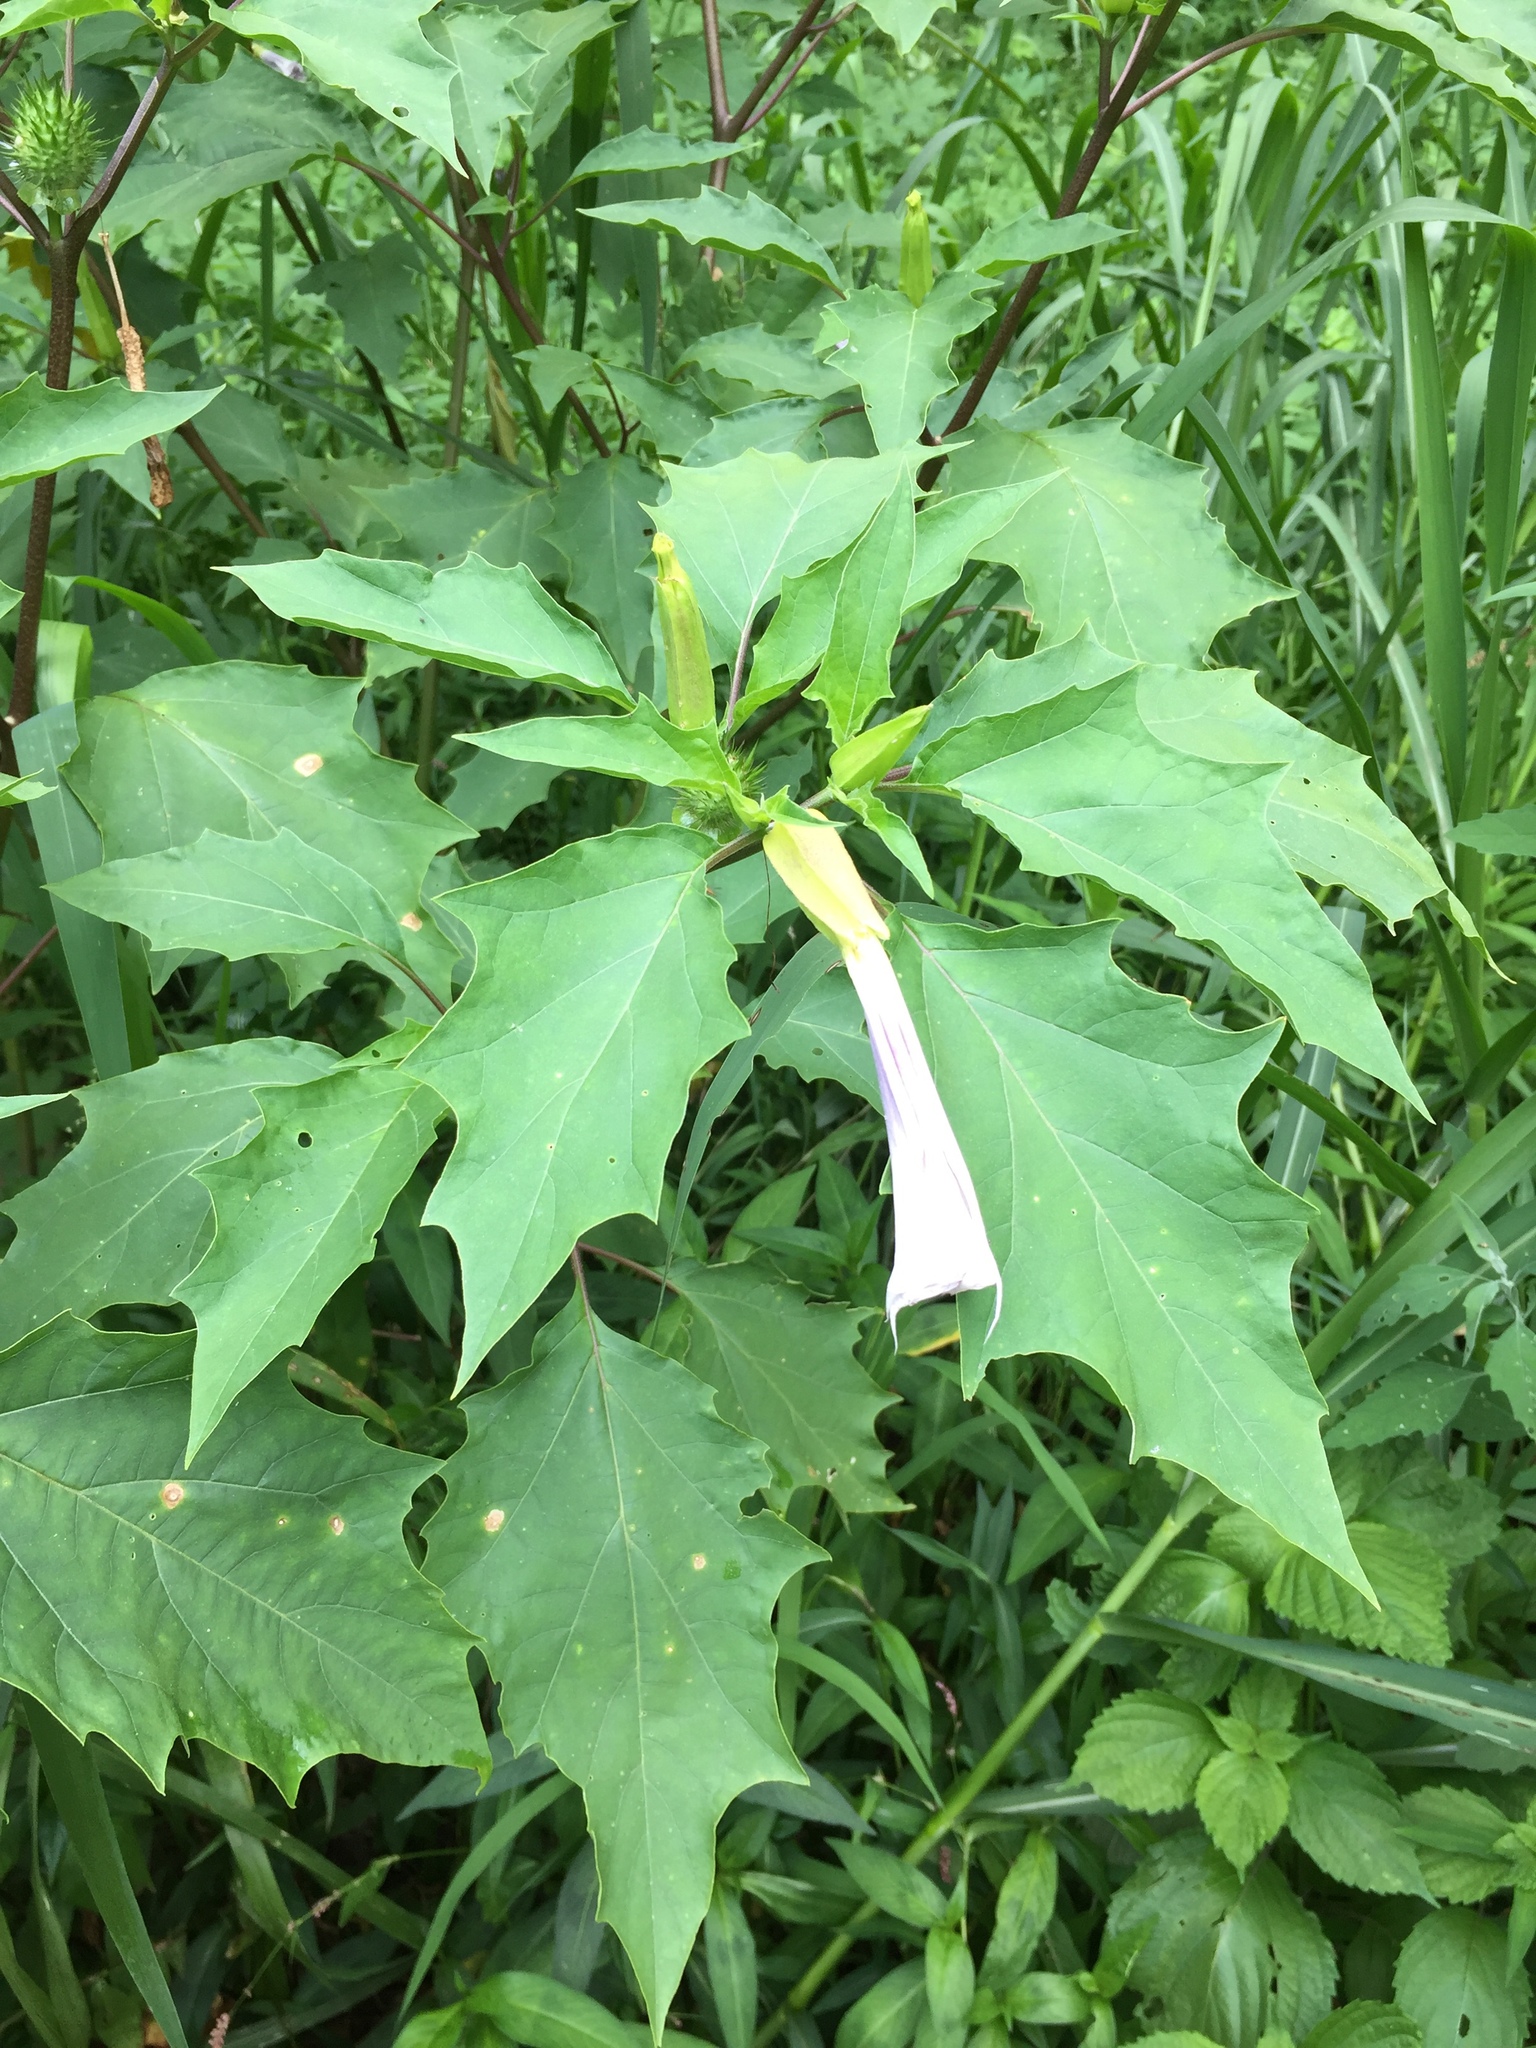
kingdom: Plantae
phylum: Tracheophyta
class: Magnoliopsida
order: Solanales
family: Solanaceae
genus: Datura
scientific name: Datura stramonium
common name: Thorn-apple
